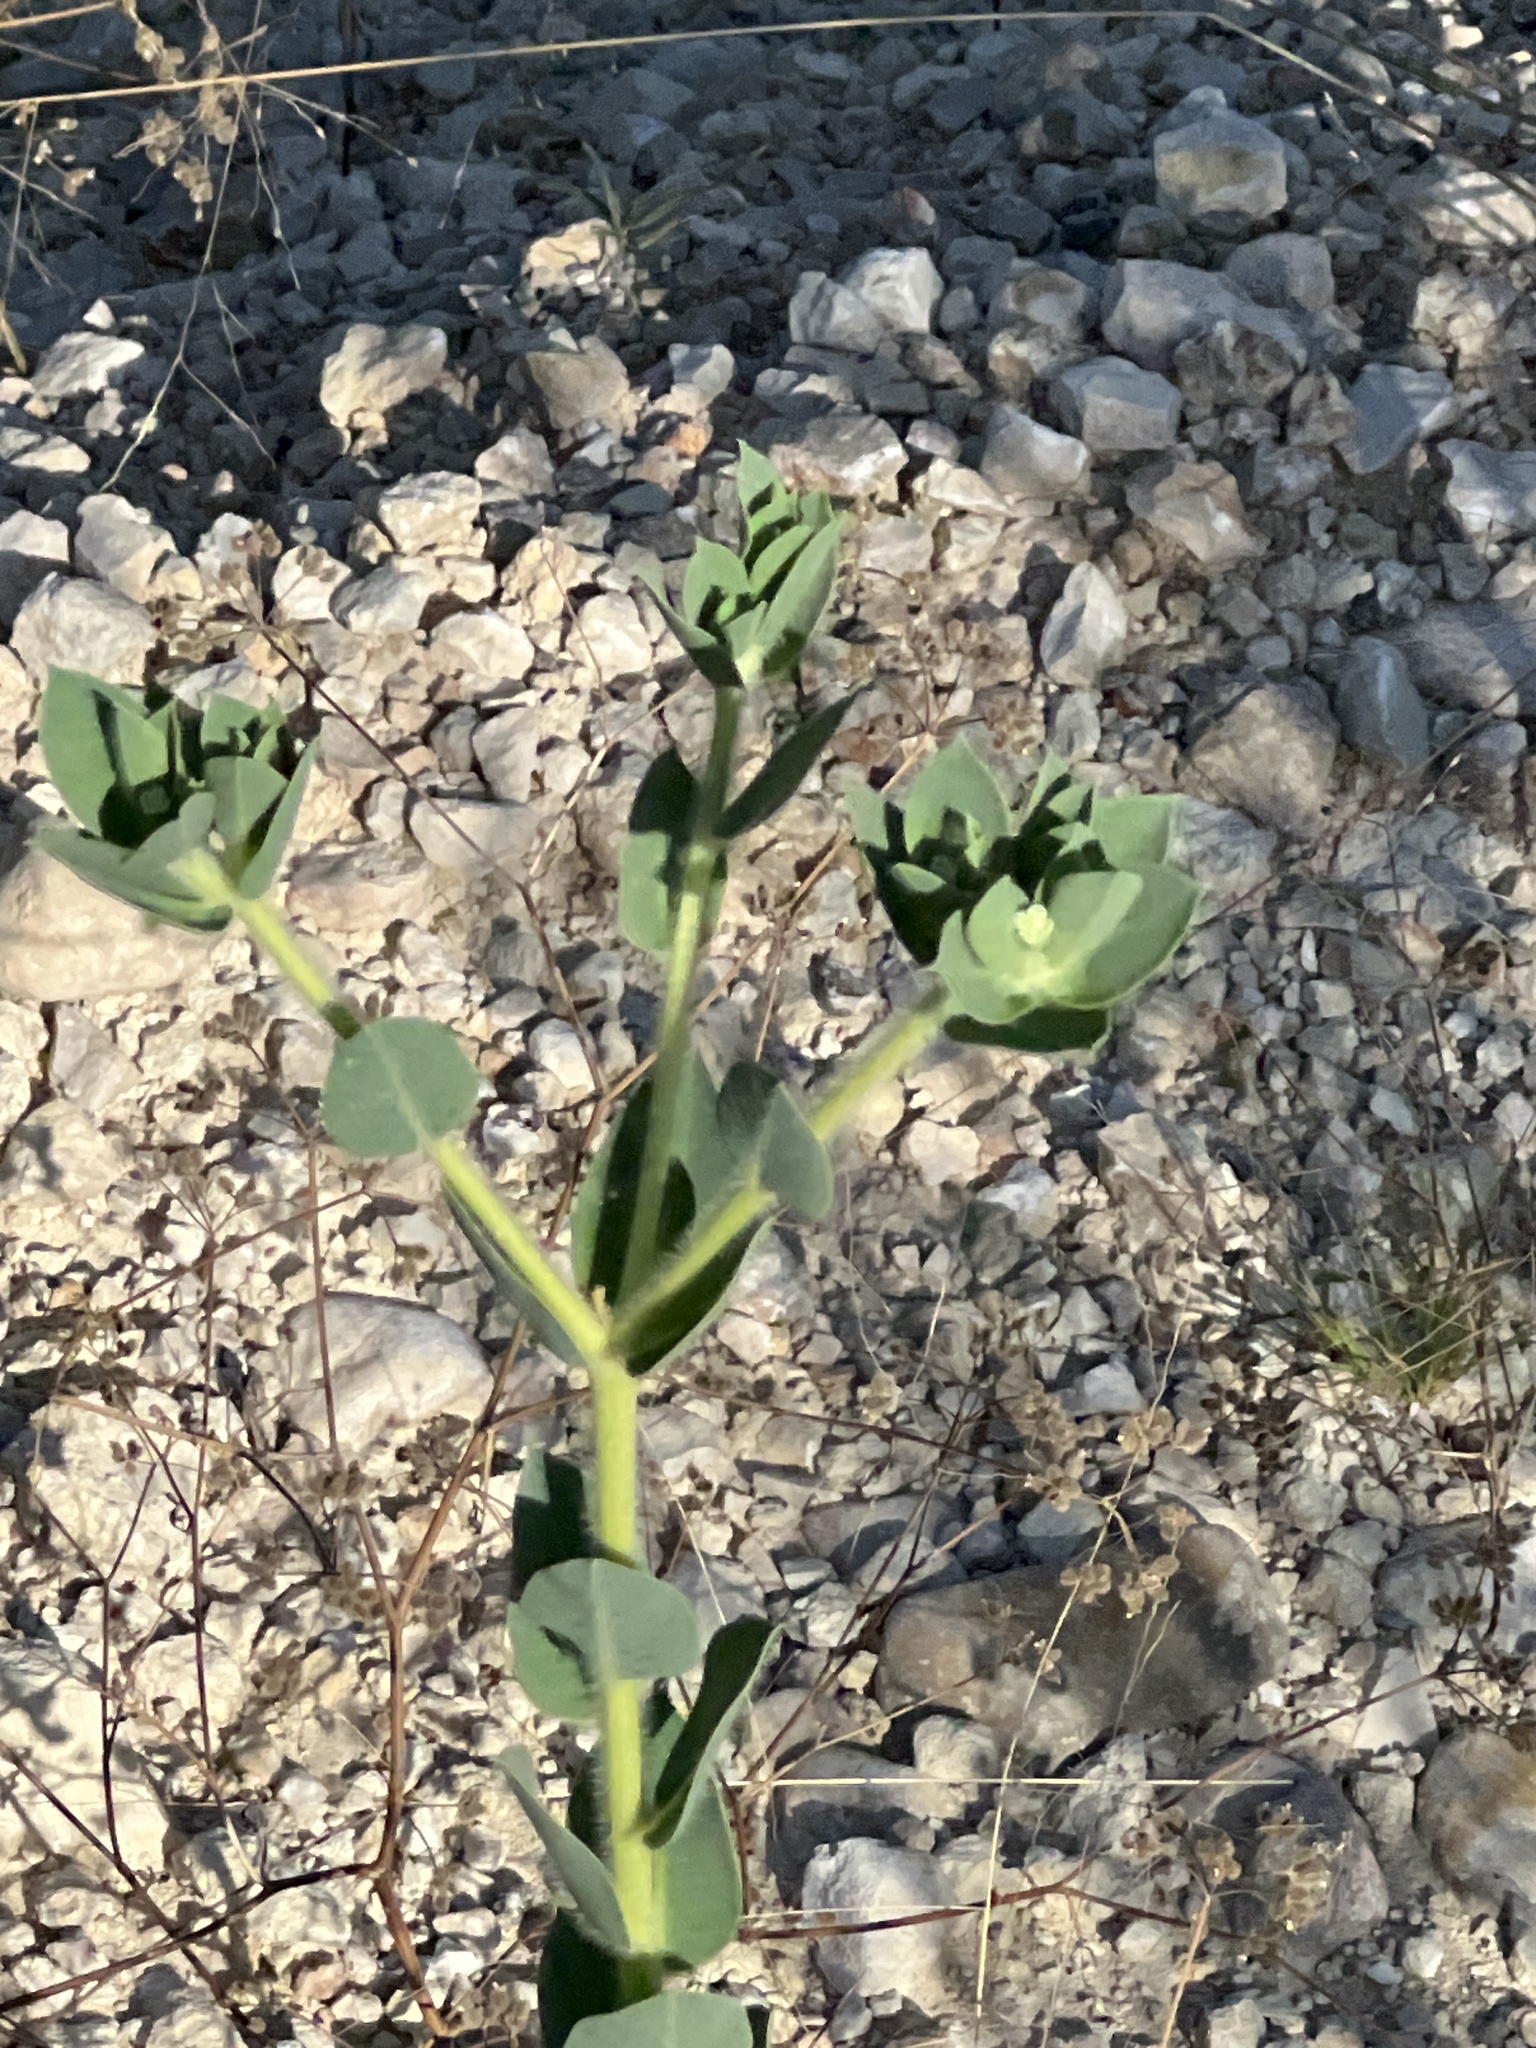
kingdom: Plantae
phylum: Tracheophyta
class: Magnoliopsida
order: Malpighiales
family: Euphorbiaceae
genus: Euphorbia
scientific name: Euphorbia marginata
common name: Ghostweed
